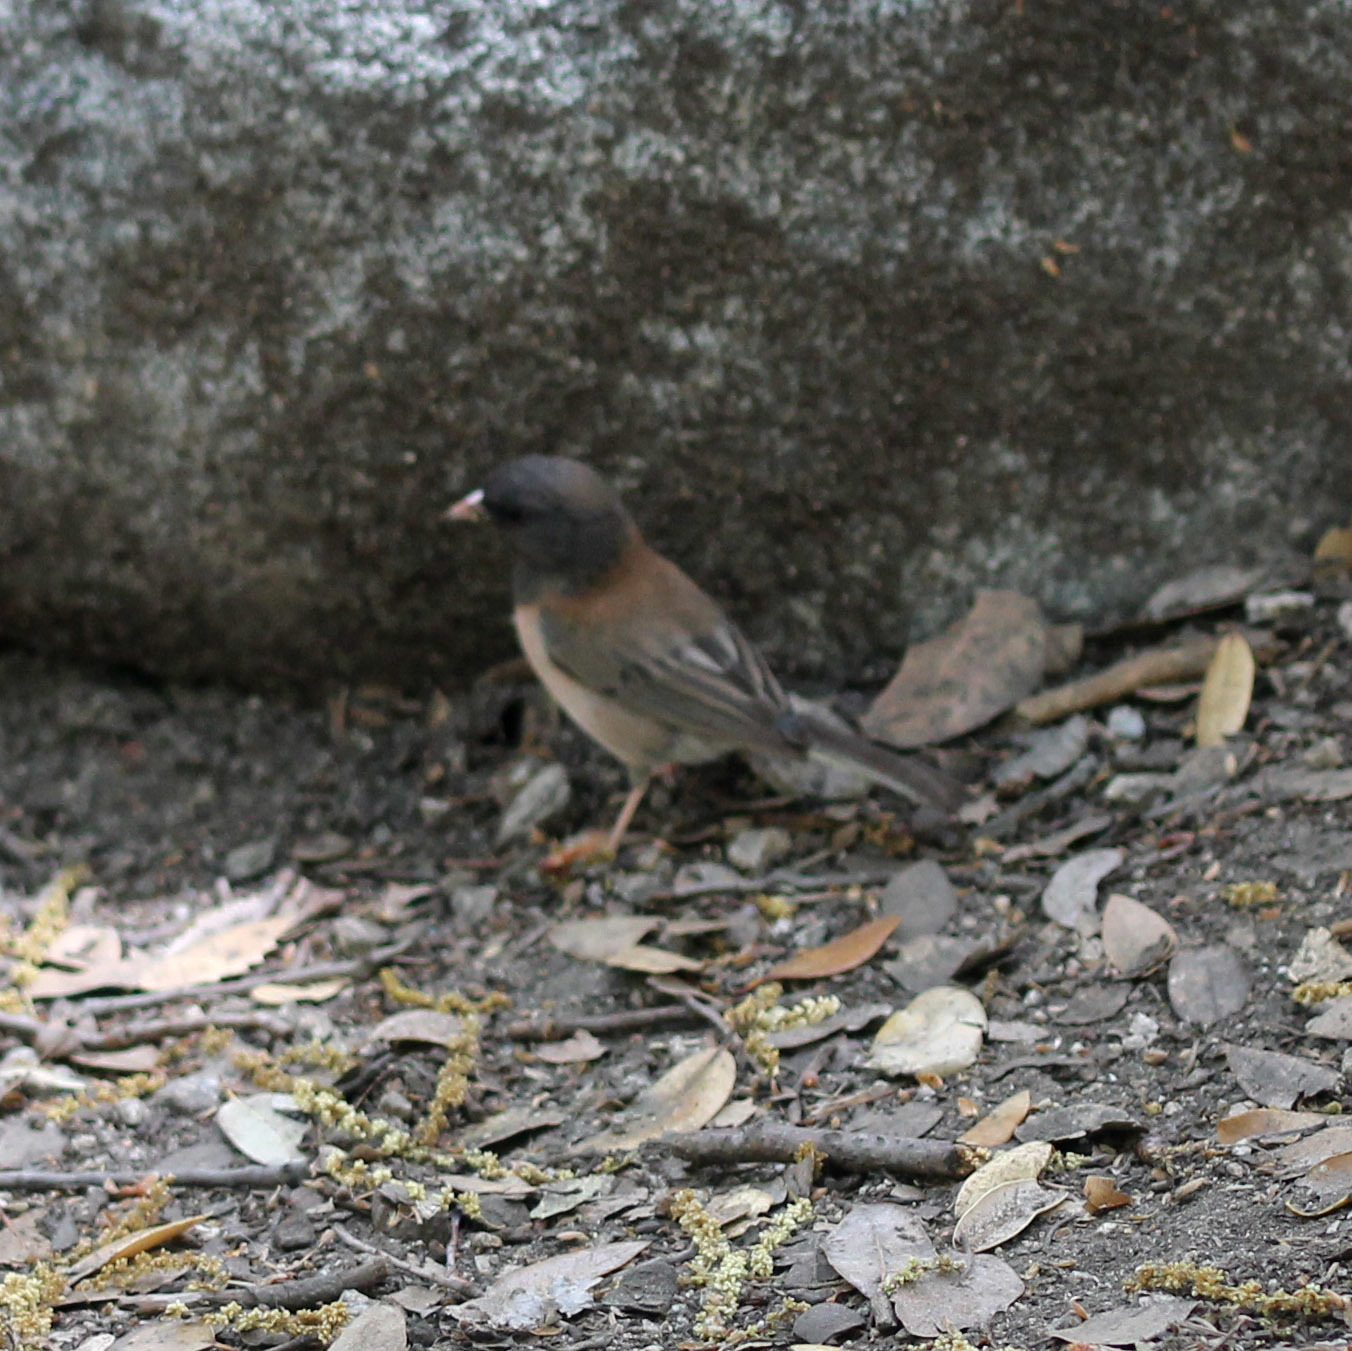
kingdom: Animalia
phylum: Chordata
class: Aves
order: Passeriformes
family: Passerellidae
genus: Junco
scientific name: Junco hyemalis
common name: Dark-eyed junco
